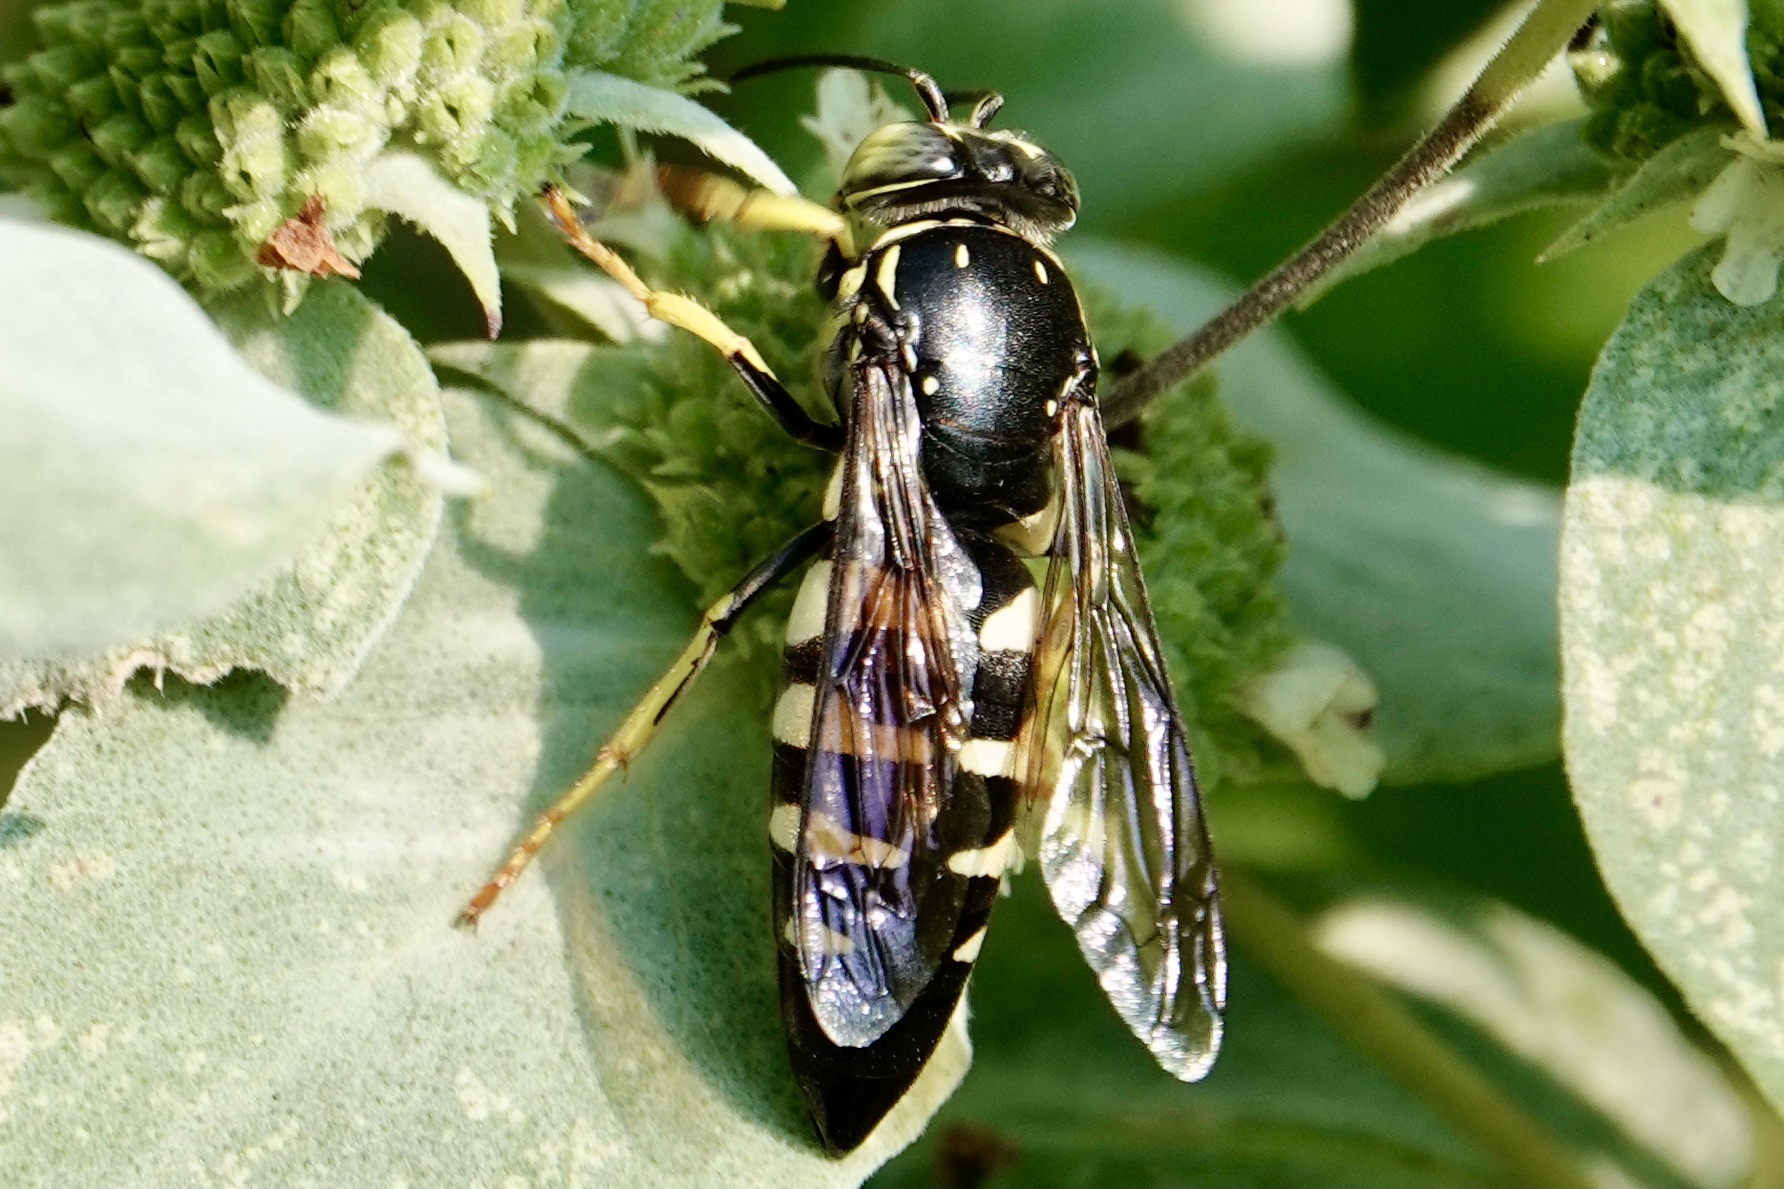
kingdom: Animalia
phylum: Arthropoda
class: Insecta
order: Hymenoptera
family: Crabronidae
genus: Bicyrtes
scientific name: Bicyrtes quadrifasciatus
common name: Four-banded stink bug hunter wasp
